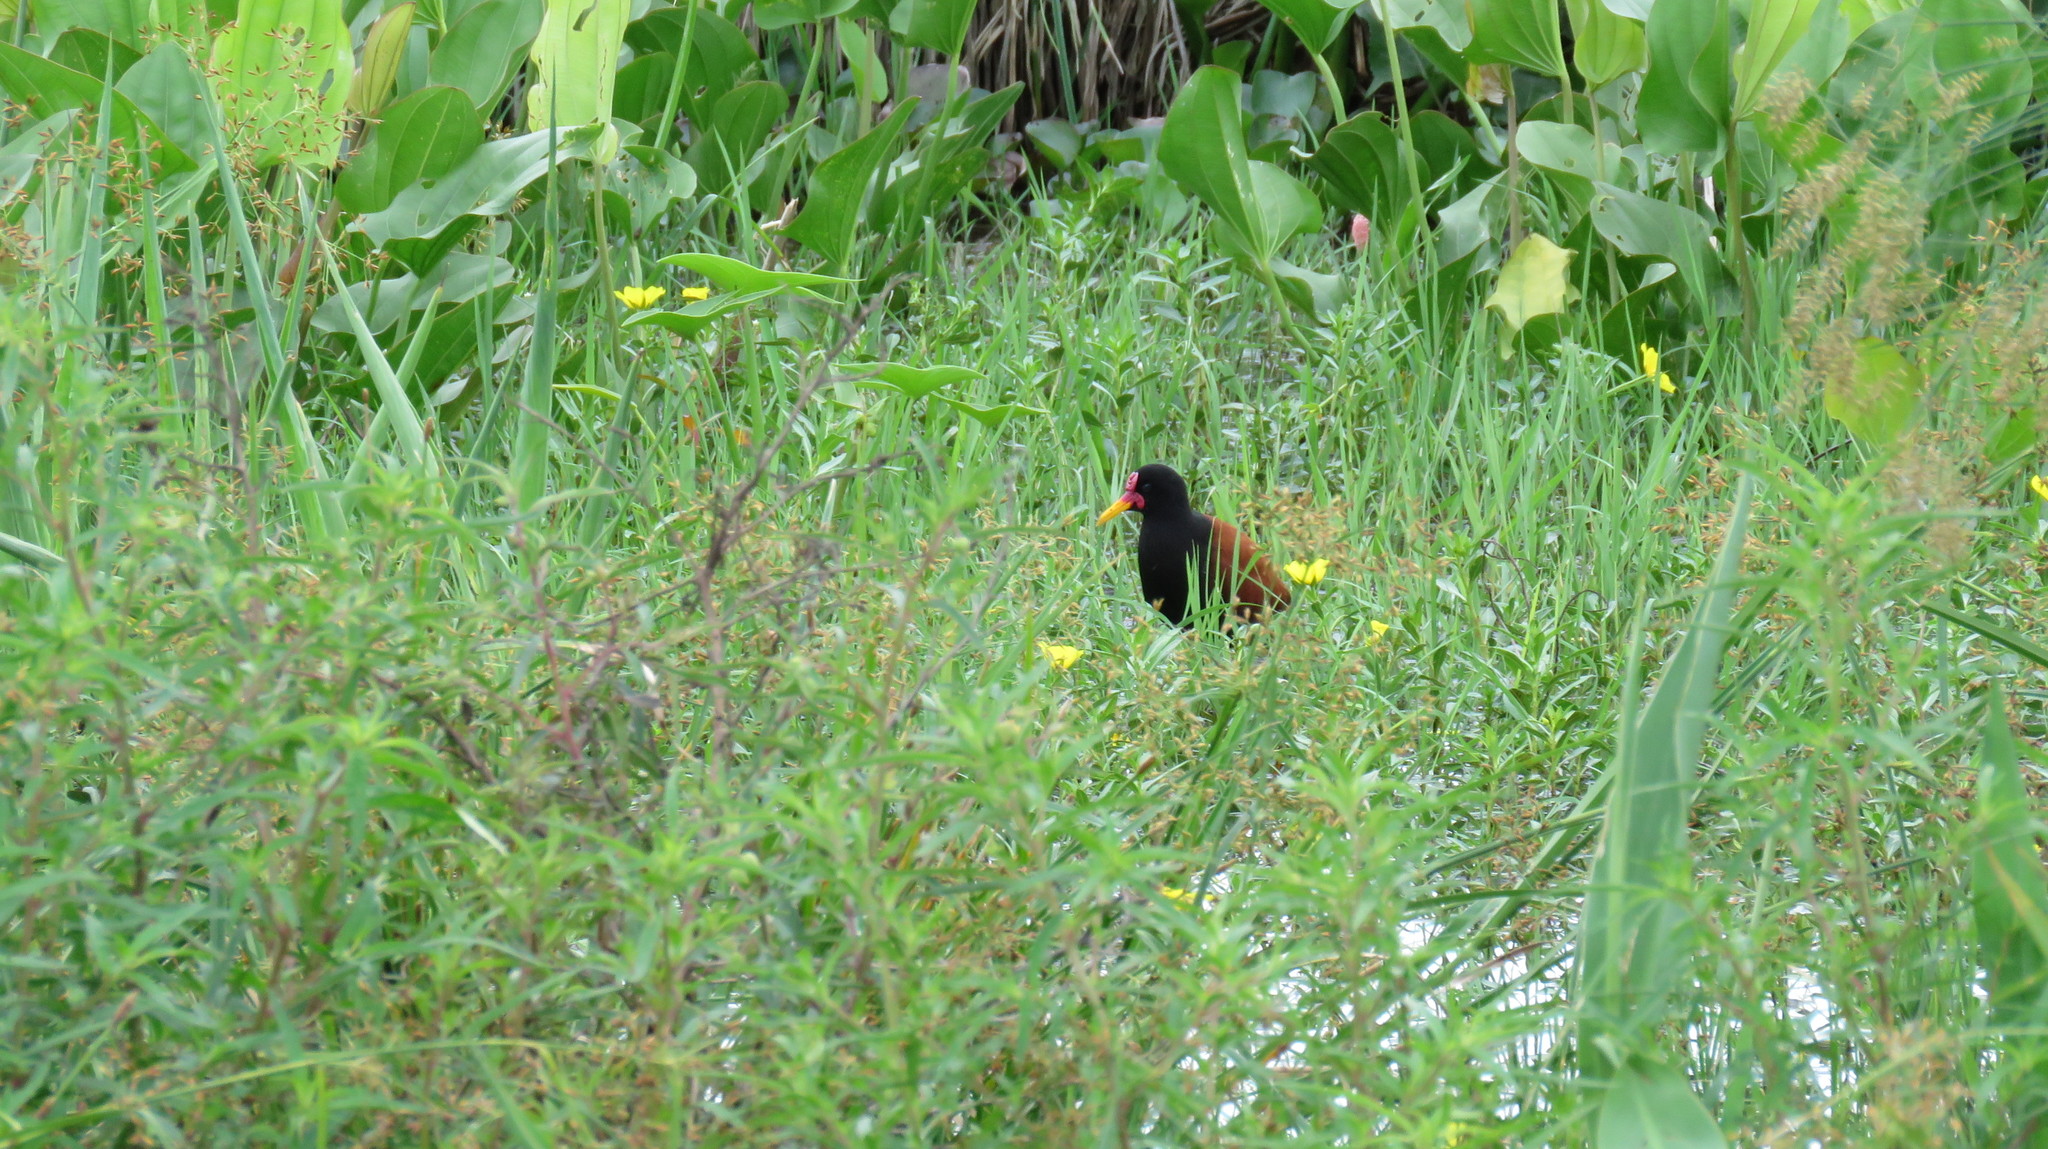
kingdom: Animalia
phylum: Chordata
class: Aves
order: Charadriiformes
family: Jacanidae
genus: Jacana
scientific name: Jacana jacana
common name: Wattled jacana
